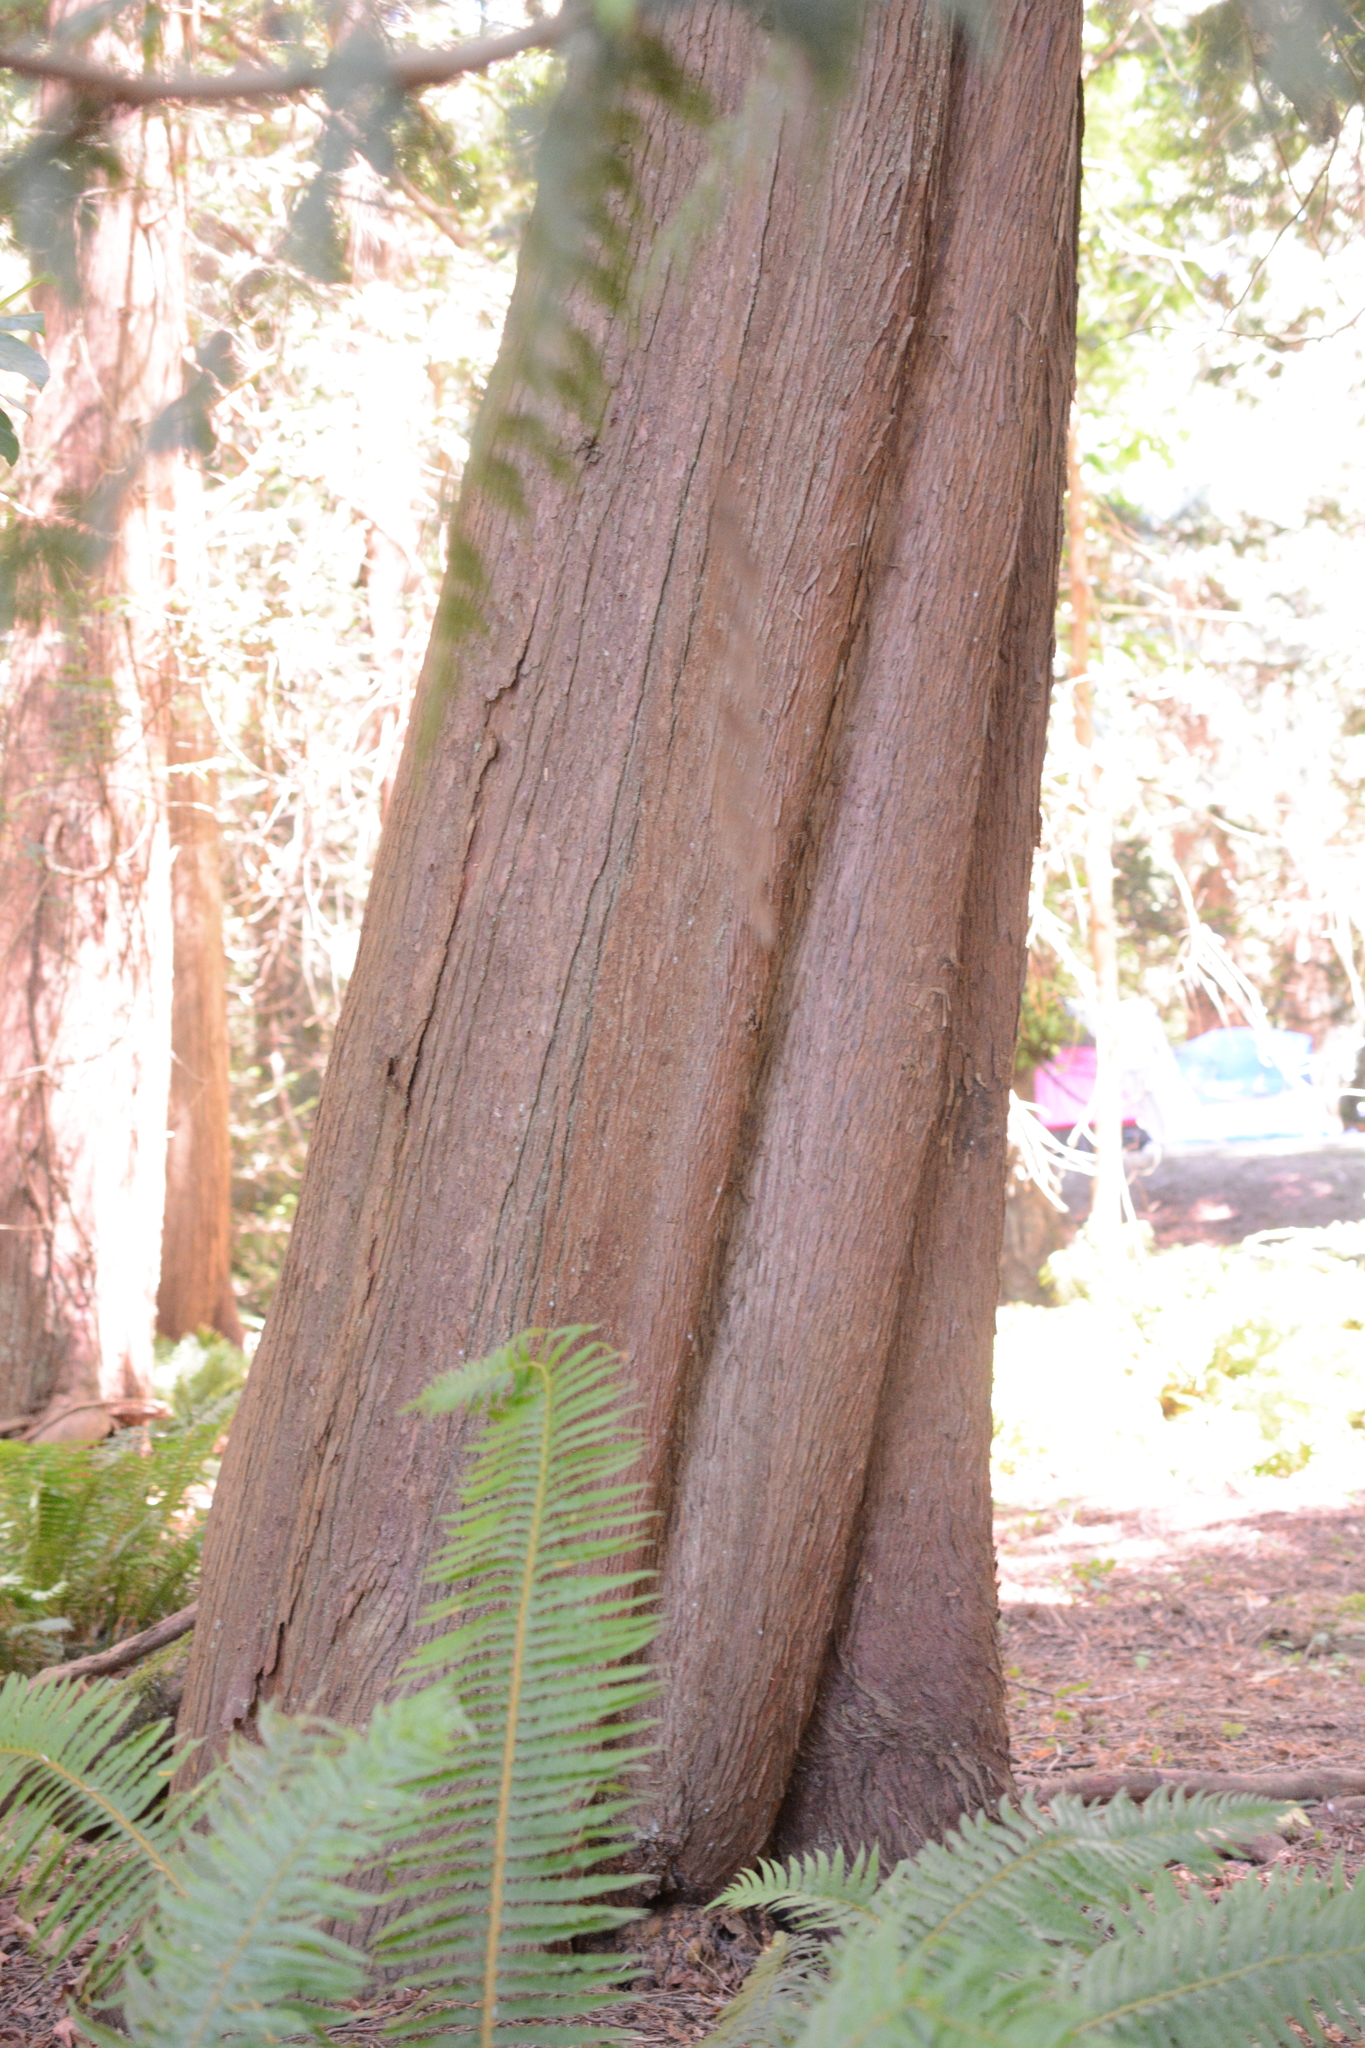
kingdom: Plantae
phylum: Tracheophyta
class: Pinopsida
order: Pinales
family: Cupressaceae
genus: Thuja
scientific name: Thuja plicata
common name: Western red-cedar
